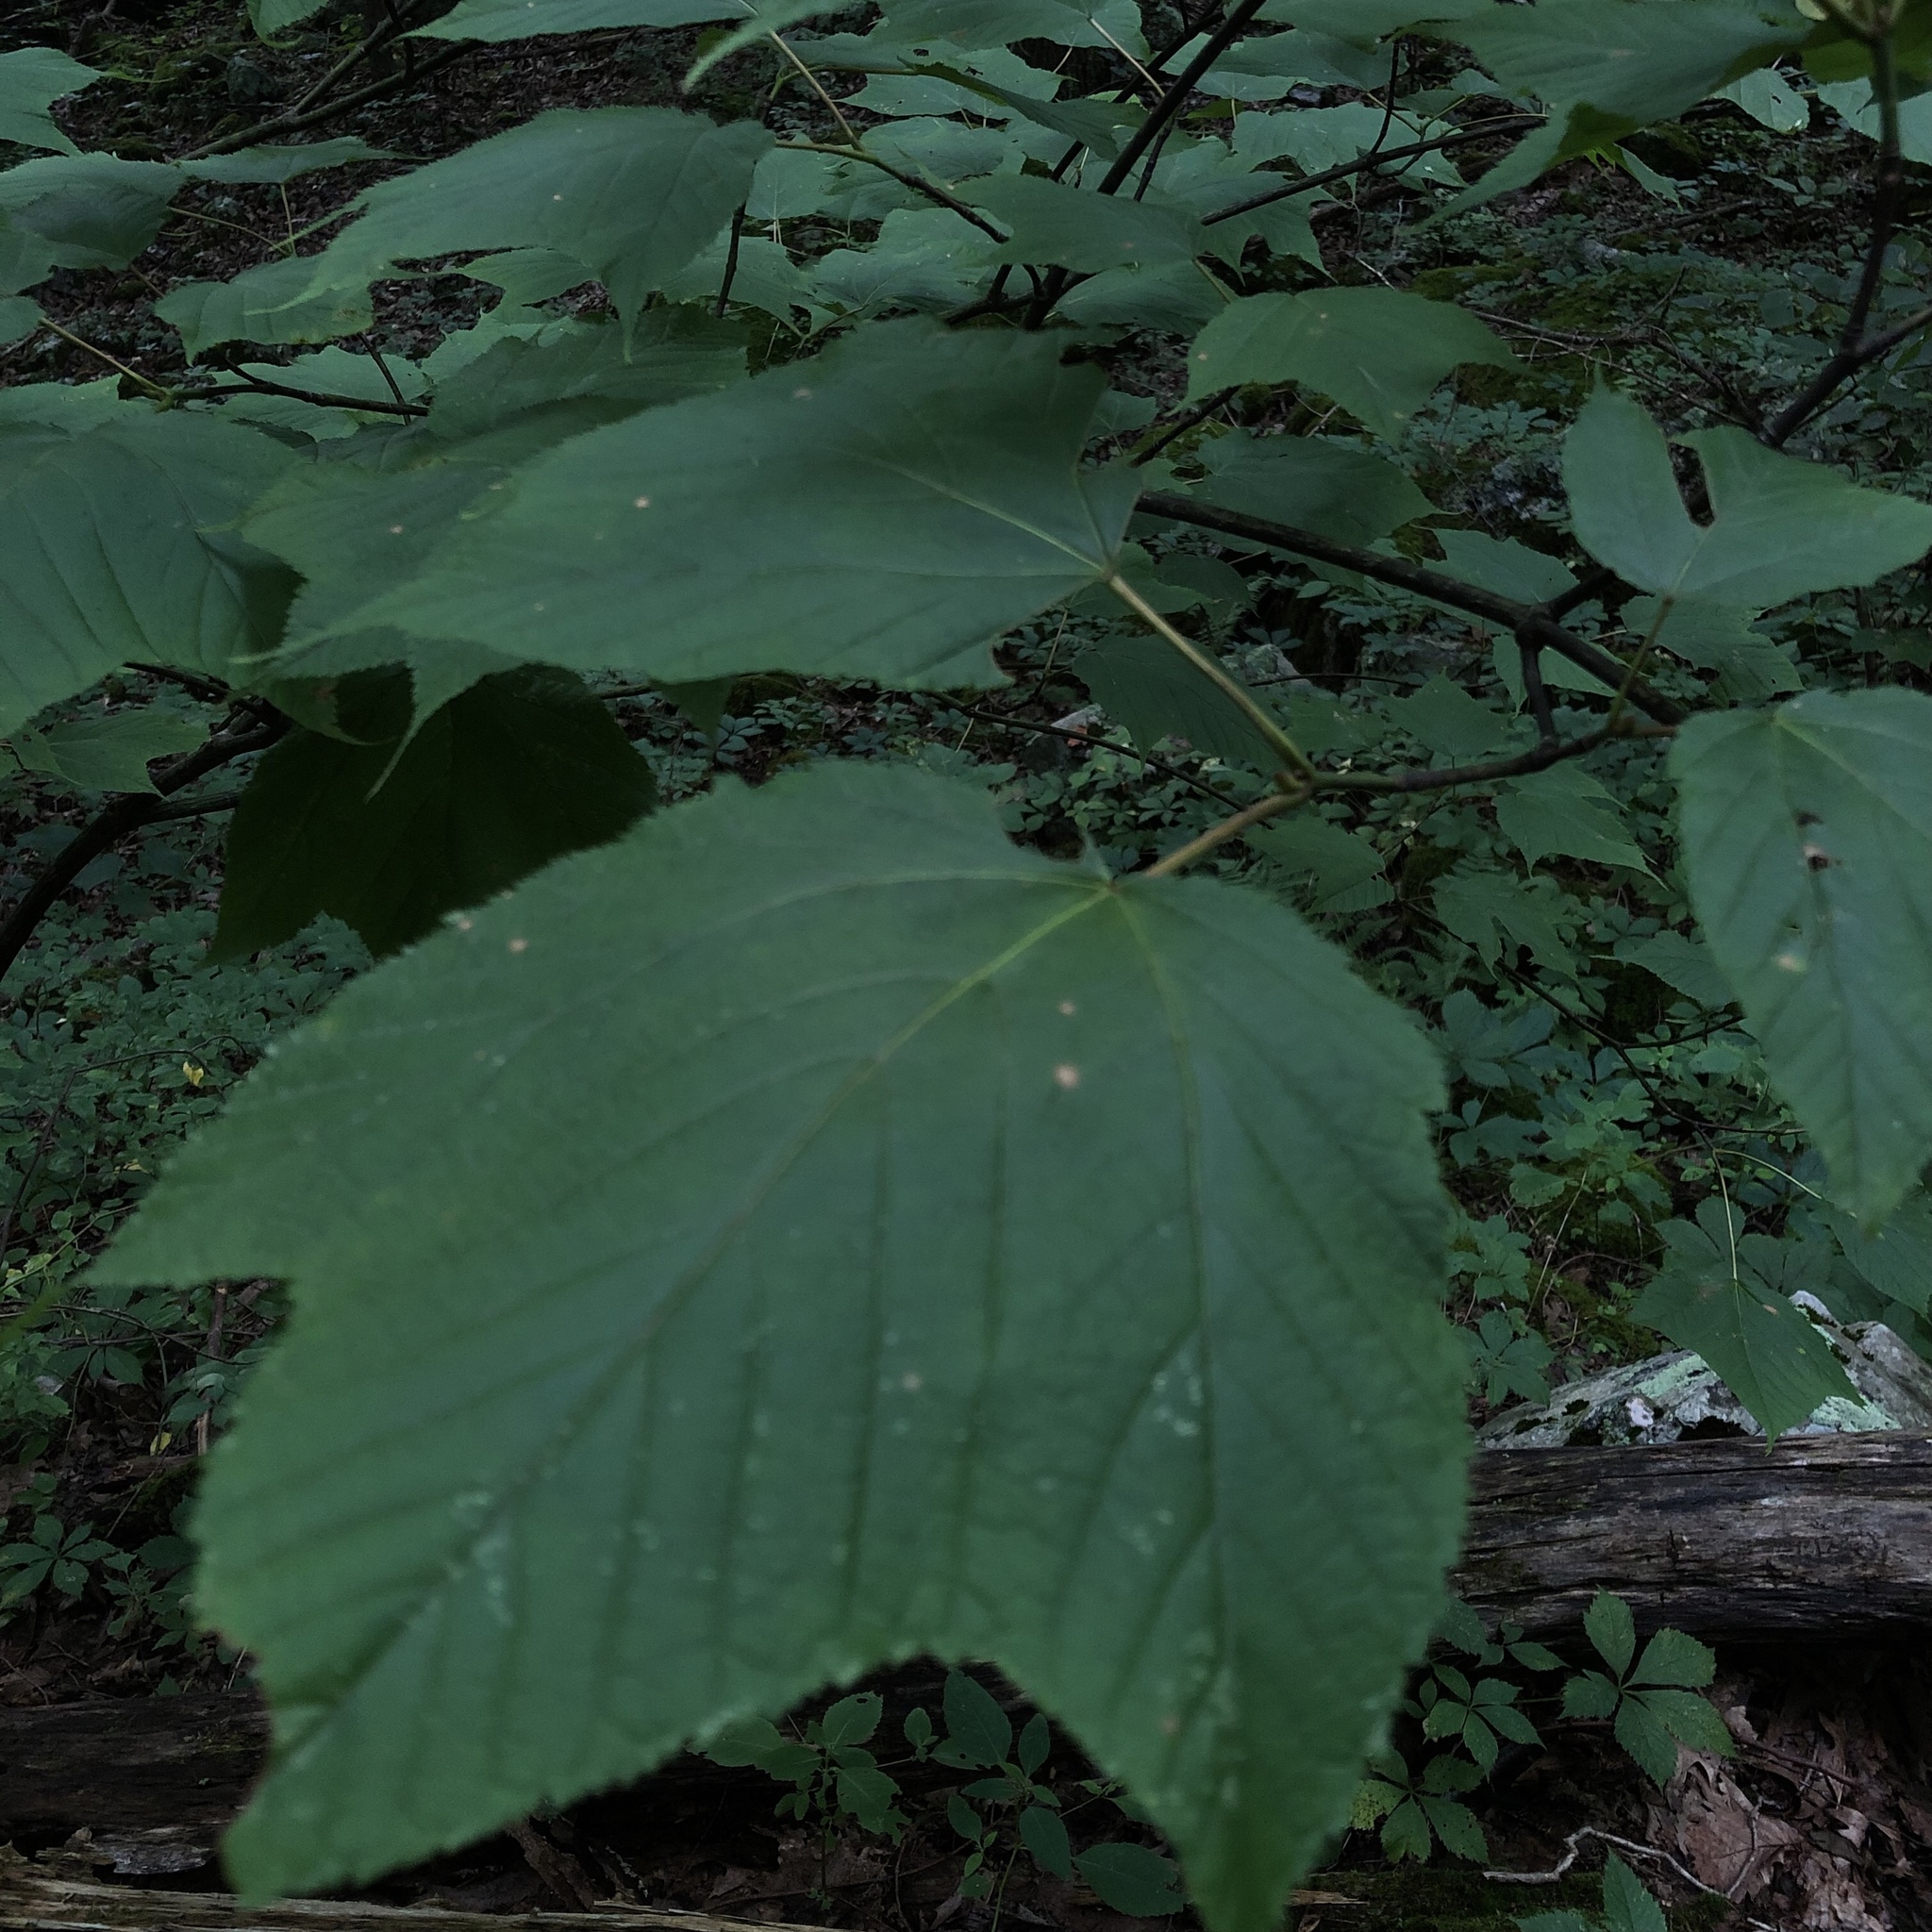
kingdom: Plantae
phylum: Tracheophyta
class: Magnoliopsida
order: Sapindales
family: Sapindaceae
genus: Acer
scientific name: Acer pensylvanicum
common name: Moosewood
